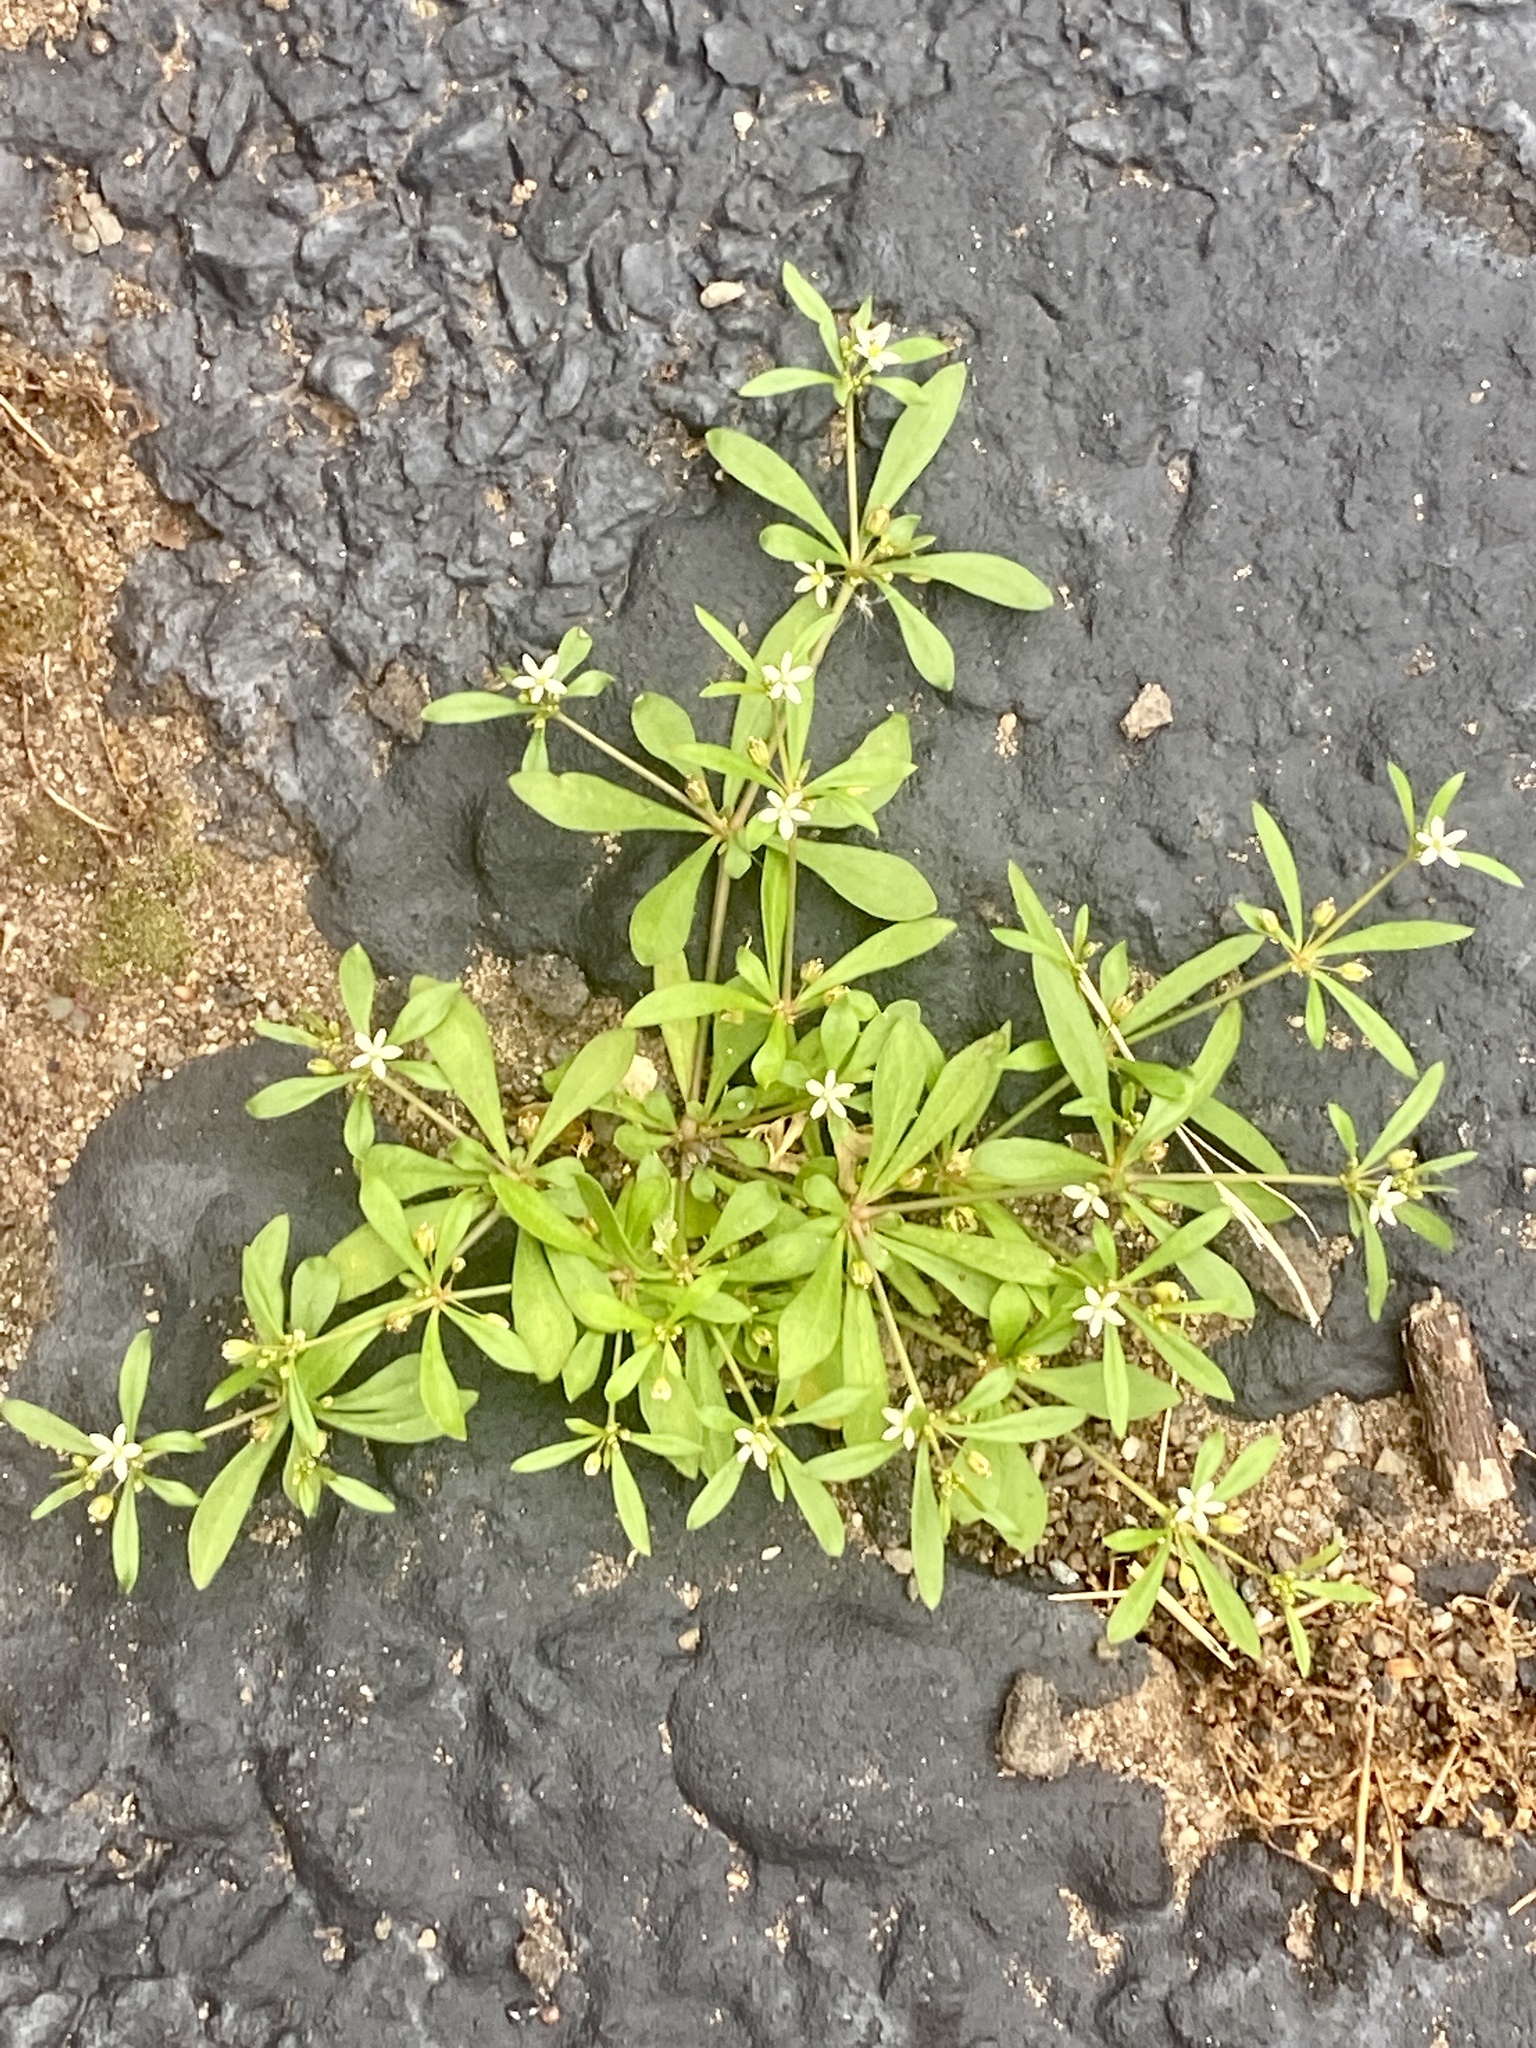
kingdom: Plantae
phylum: Tracheophyta
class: Magnoliopsida
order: Caryophyllales
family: Molluginaceae
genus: Mollugo
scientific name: Mollugo verticillata
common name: Green carpetweed
